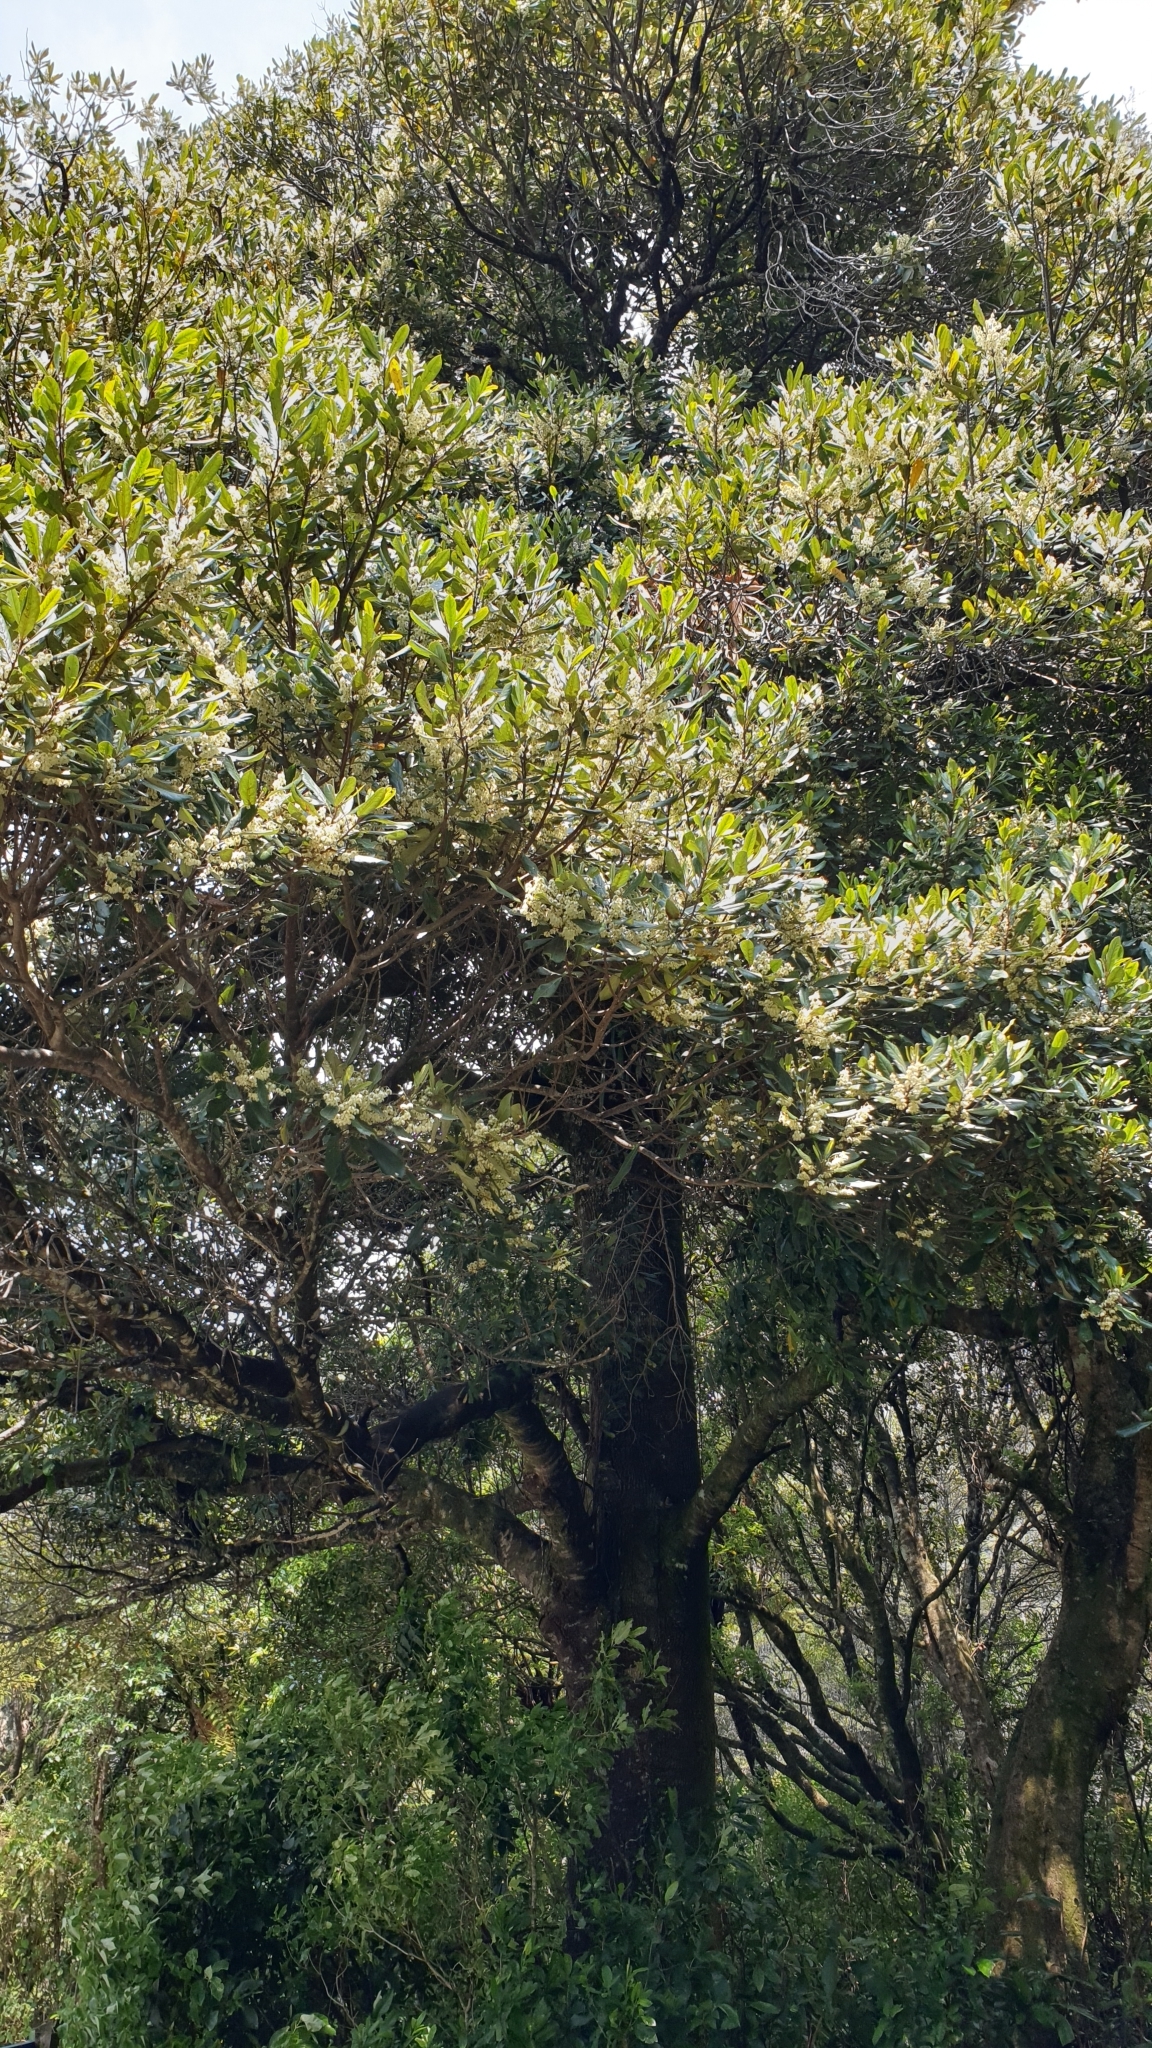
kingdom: Plantae
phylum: Tracheophyta
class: Magnoliopsida
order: Oxalidales
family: Elaeocarpaceae
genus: Elaeocarpus
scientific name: Elaeocarpus dentatus
